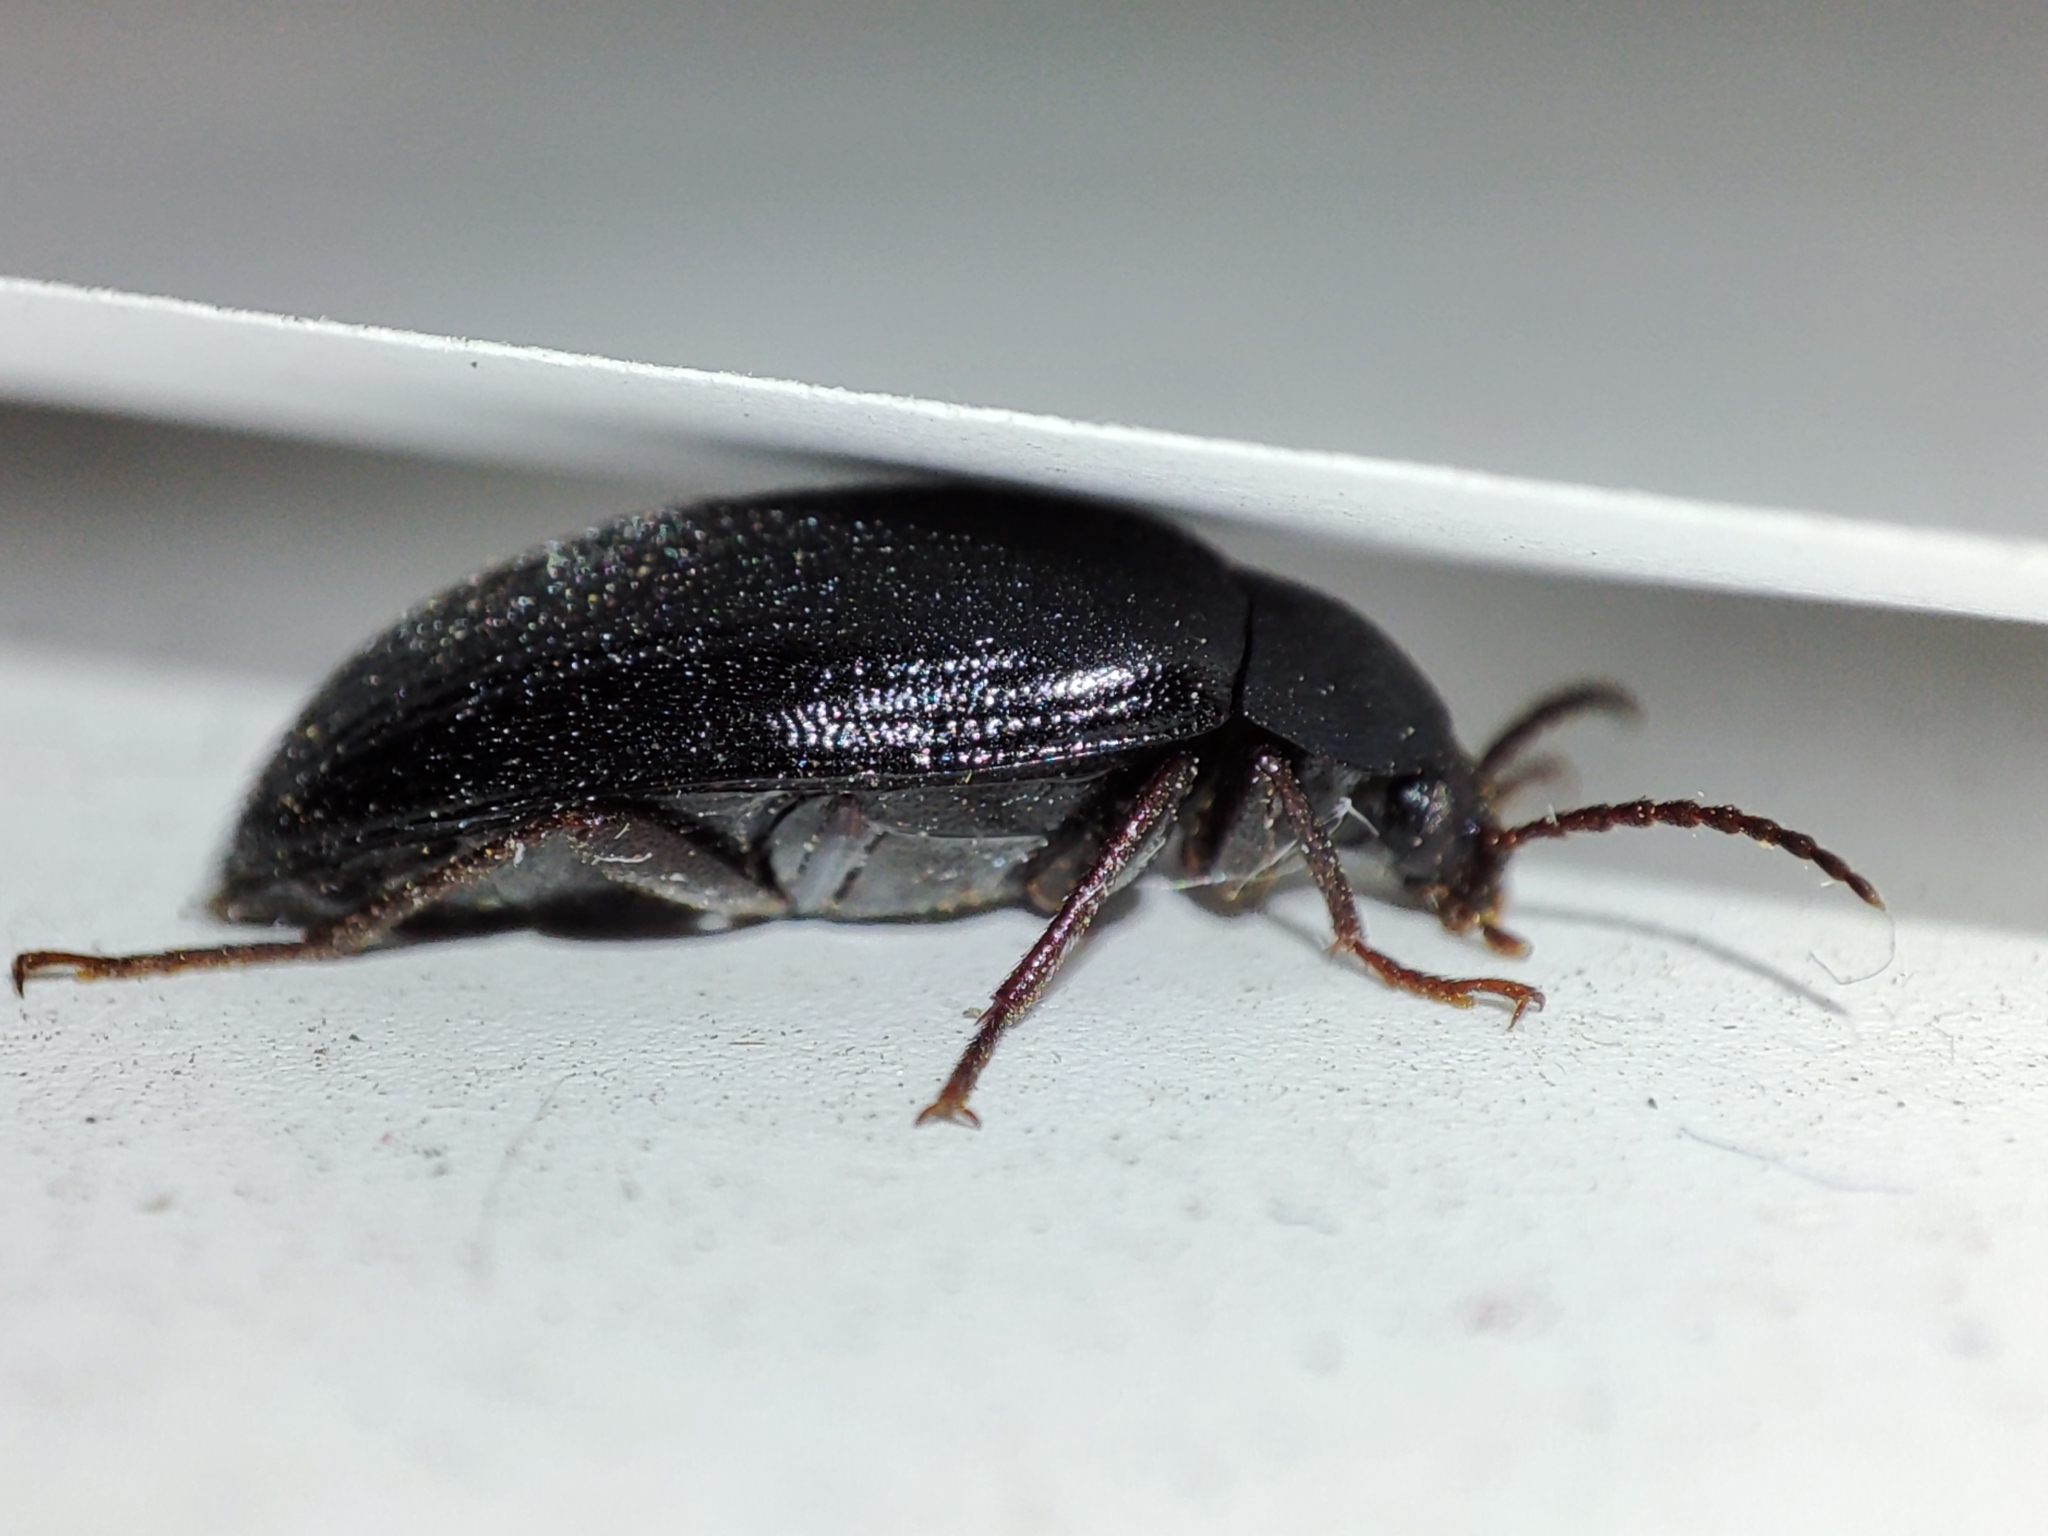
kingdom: Animalia
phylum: Arthropoda
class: Insecta
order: Coleoptera
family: Tenebrionidae
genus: Prionychus
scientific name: Prionychus ater
